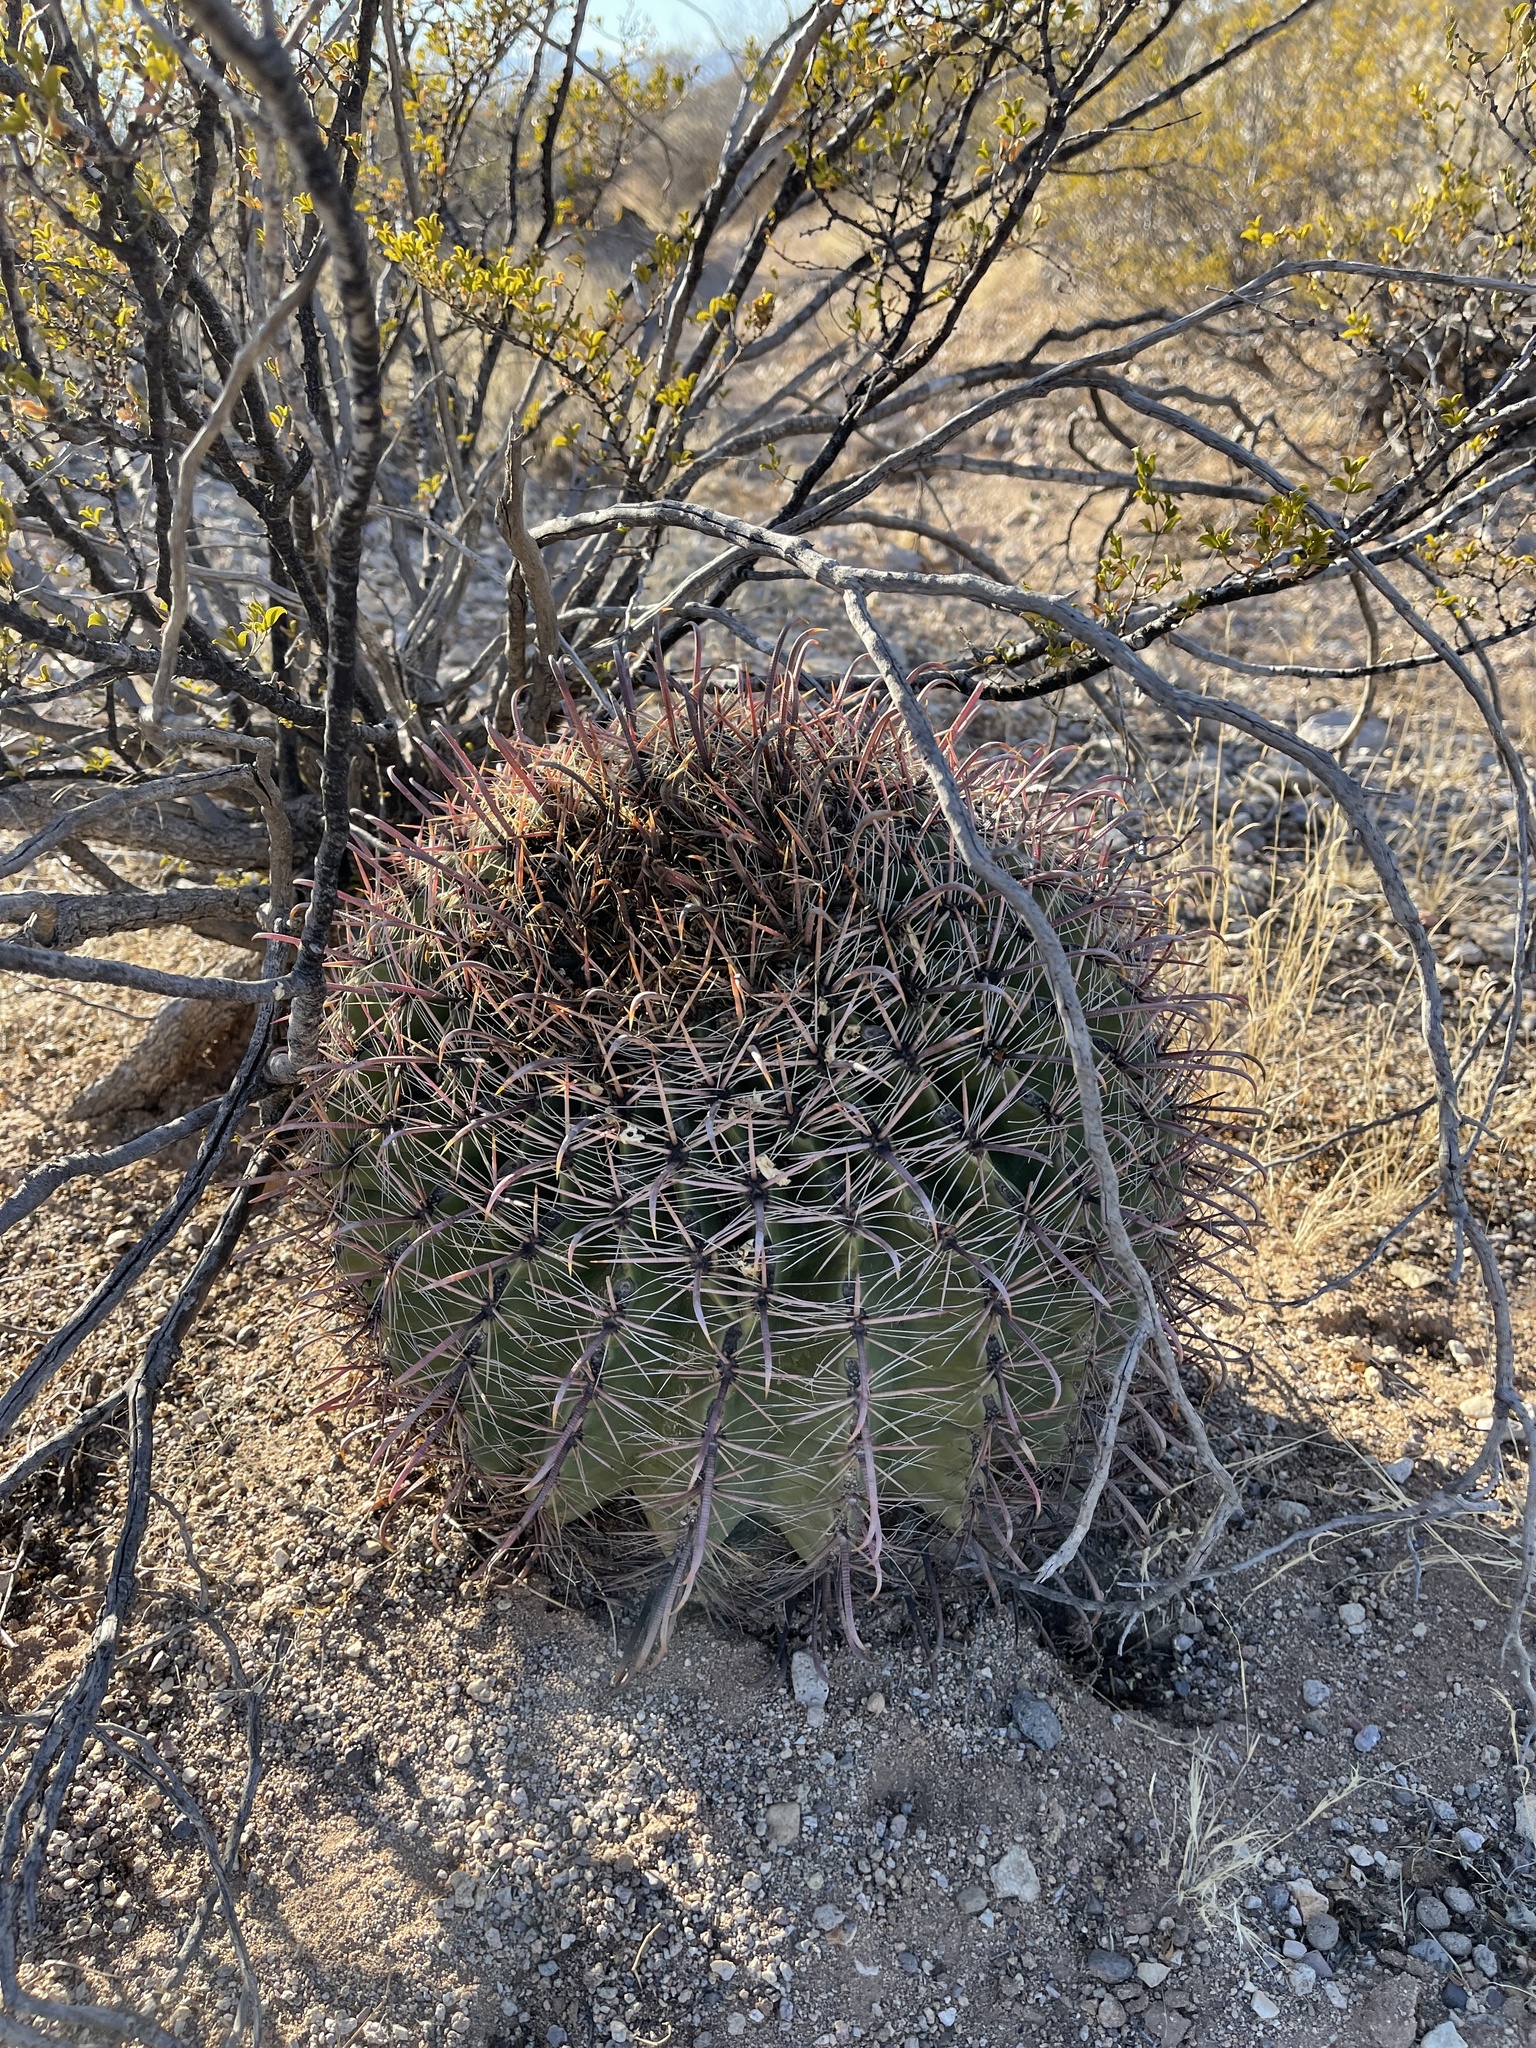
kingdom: Plantae
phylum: Tracheophyta
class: Magnoliopsida
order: Caryophyllales
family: Cactaceae
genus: Ferocactus
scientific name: Ferocactus wislizeni
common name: Candy barrel cactus
